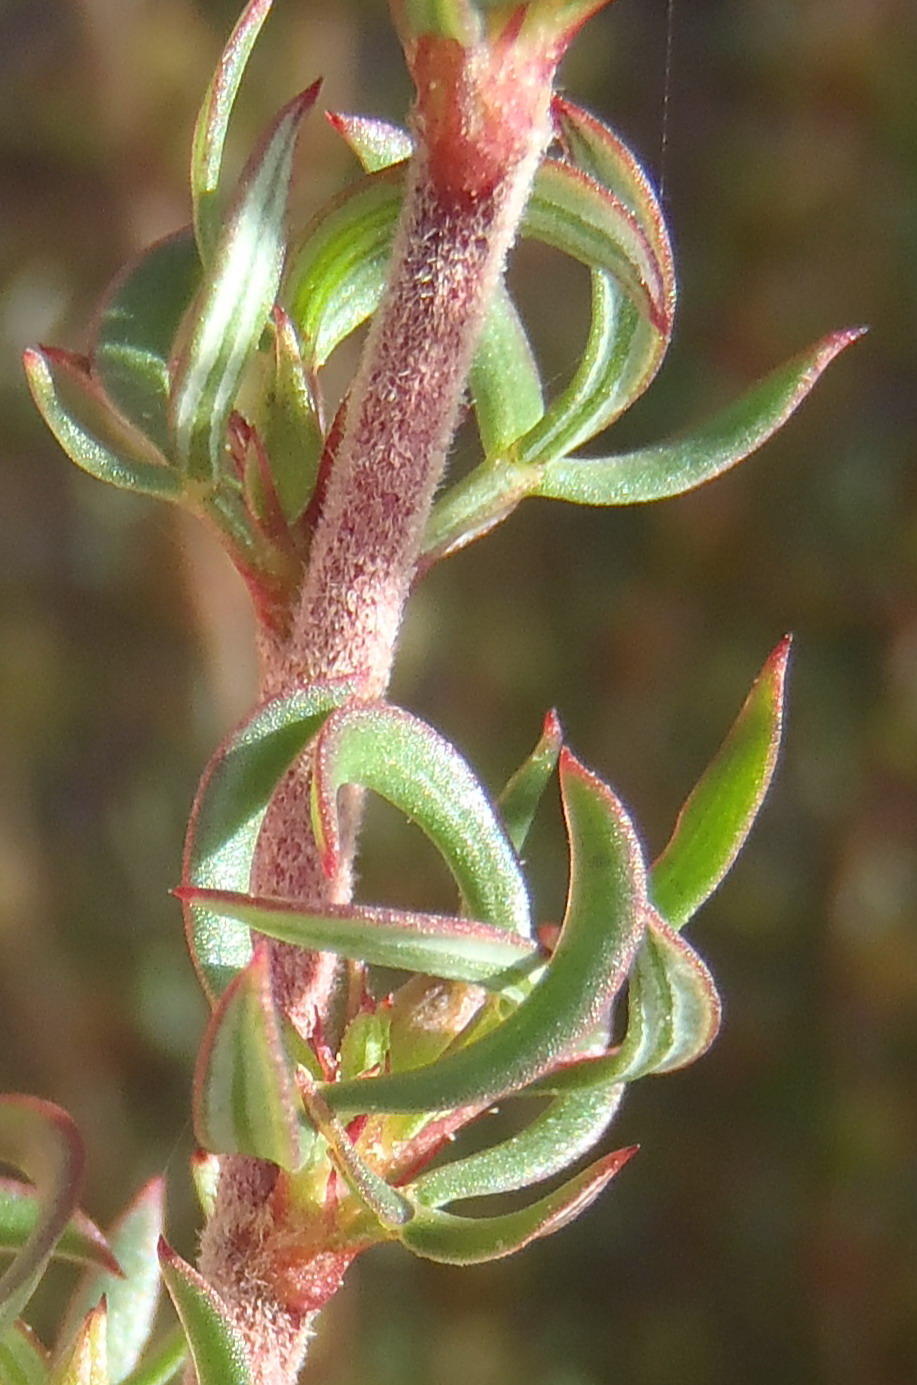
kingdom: Plantae
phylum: Tracheophyta
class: Magnoliopsida
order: Rosales
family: Rosaceae
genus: Cliffortia
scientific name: Cliffortia arcuata
